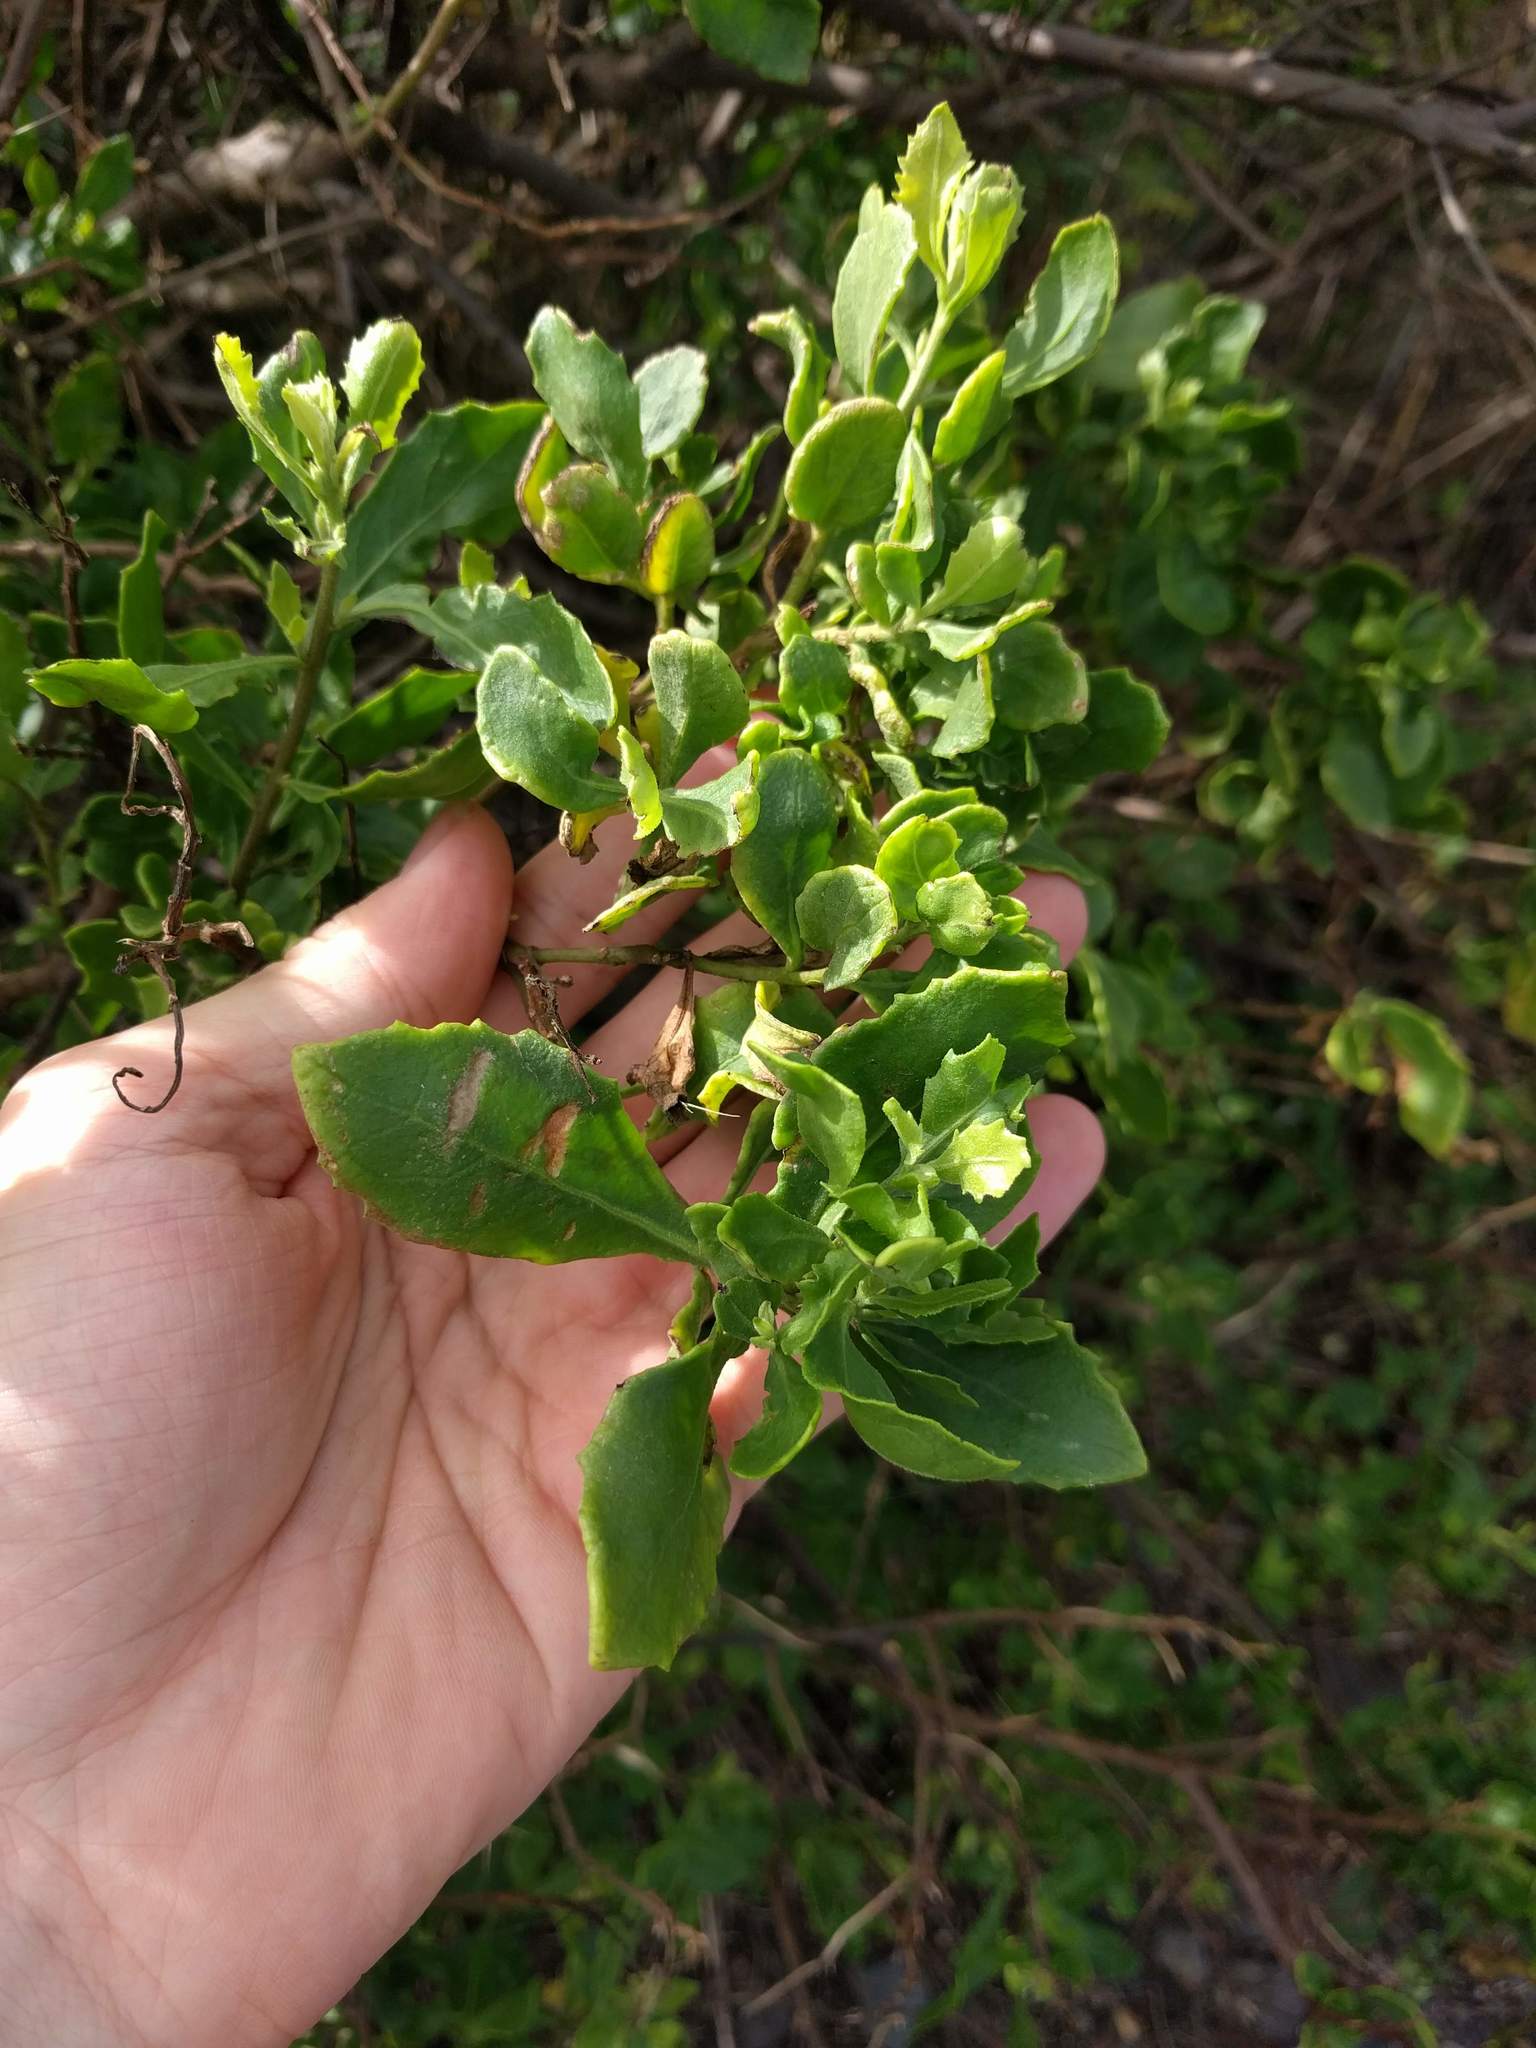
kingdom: Plantae
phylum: Tracheophyta
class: Magnoliopsida
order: Asterales
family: Asteraceae
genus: Pluchea
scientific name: Pluchea indica
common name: Indian fleabane
